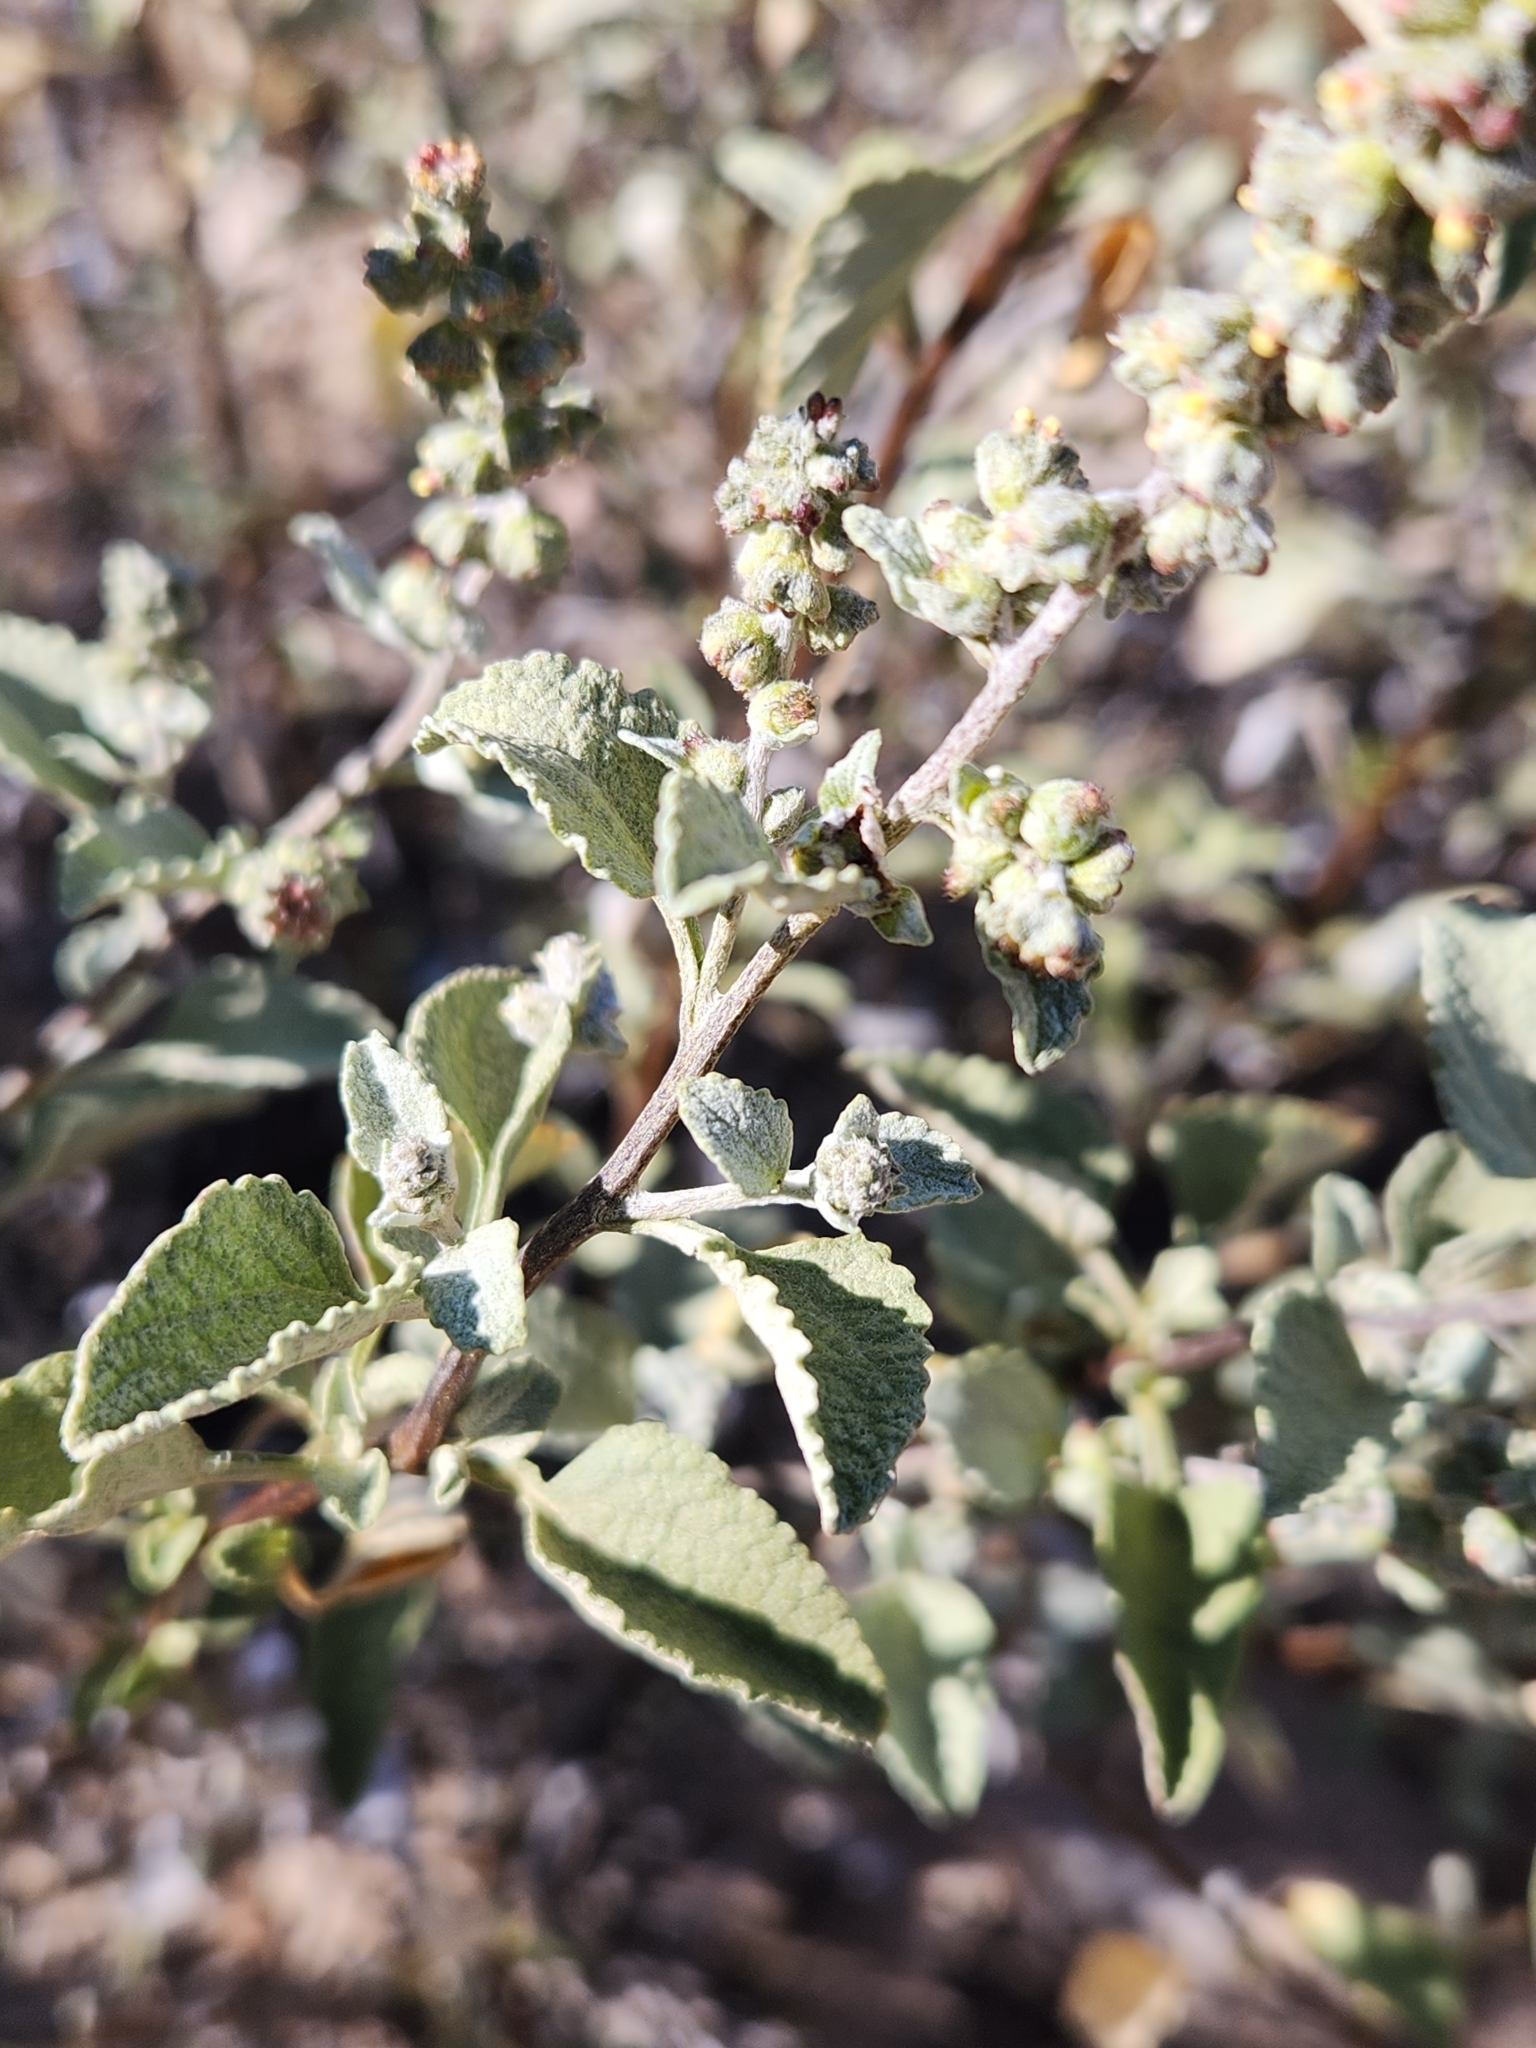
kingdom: Plantae
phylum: Tracheophyta
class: Magnoliopsida
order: Asterales
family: Asteraceae
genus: Ambrosia
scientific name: Ambrosia chenopodiifolia
